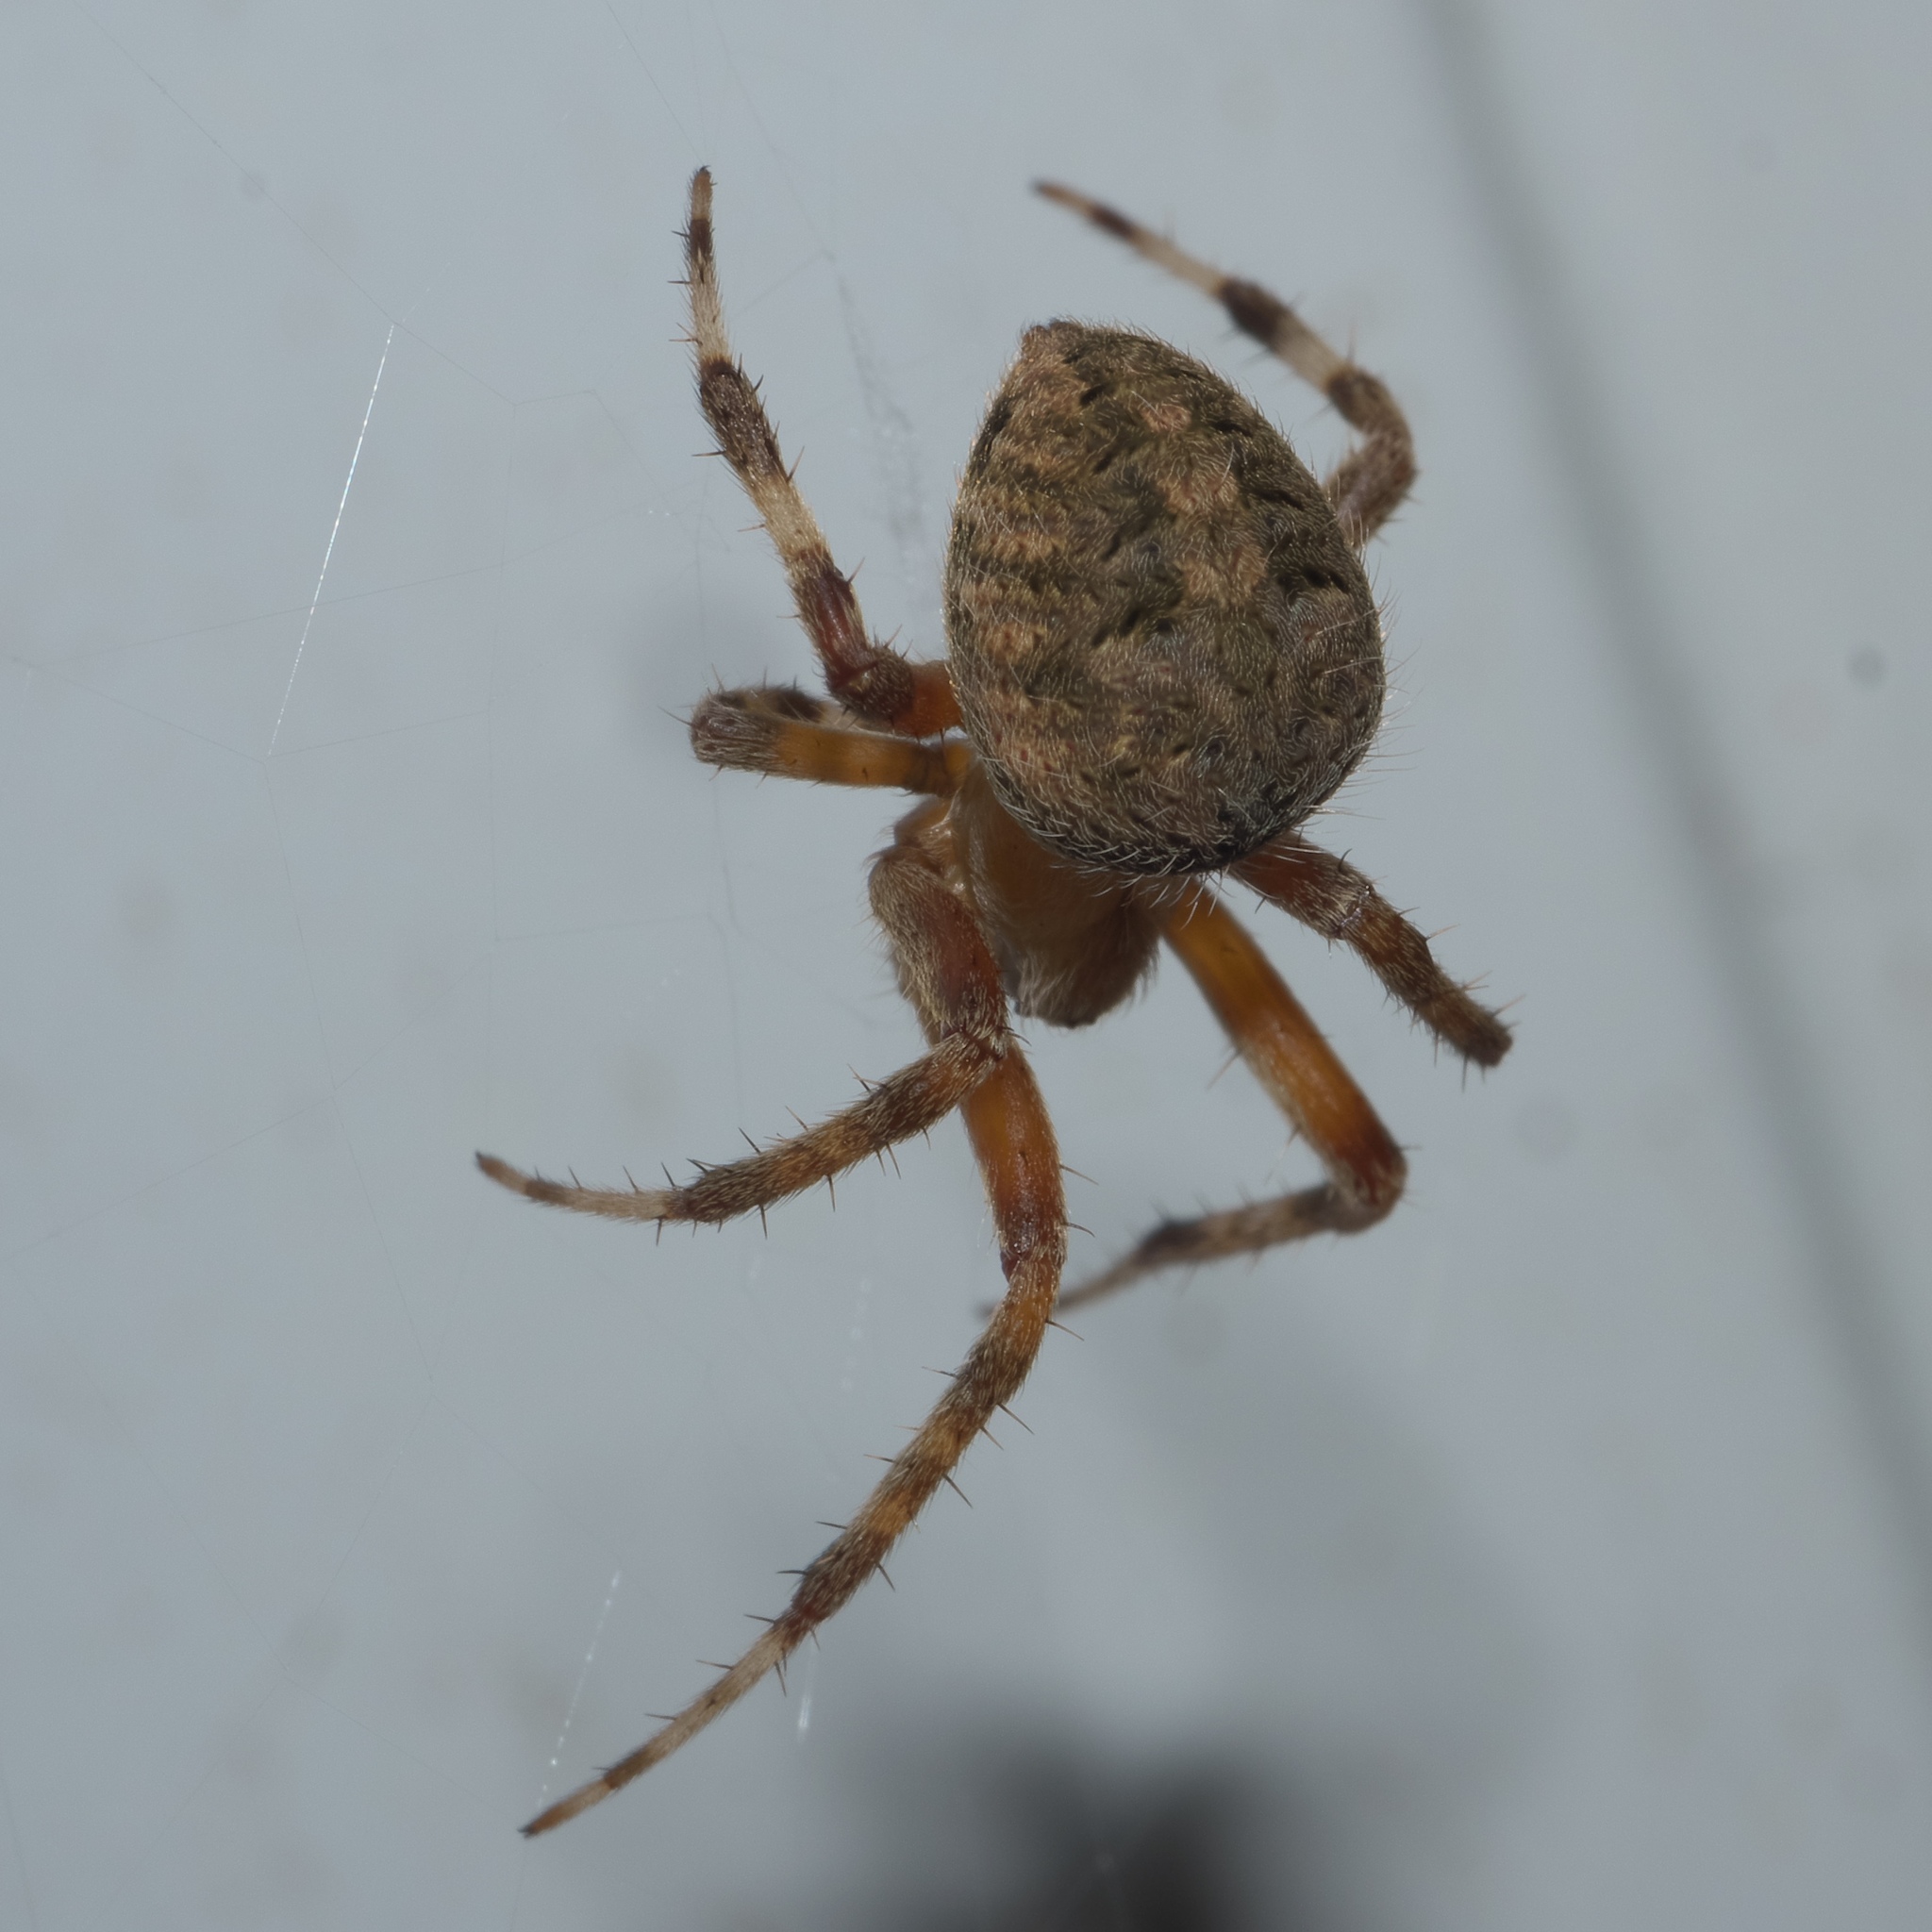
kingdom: Animalia
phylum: Arthropoda
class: Arachnida
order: Araneae
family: Araneidae
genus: Neoscona
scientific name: Neoscona crucifera
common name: Spotted orbweaver
